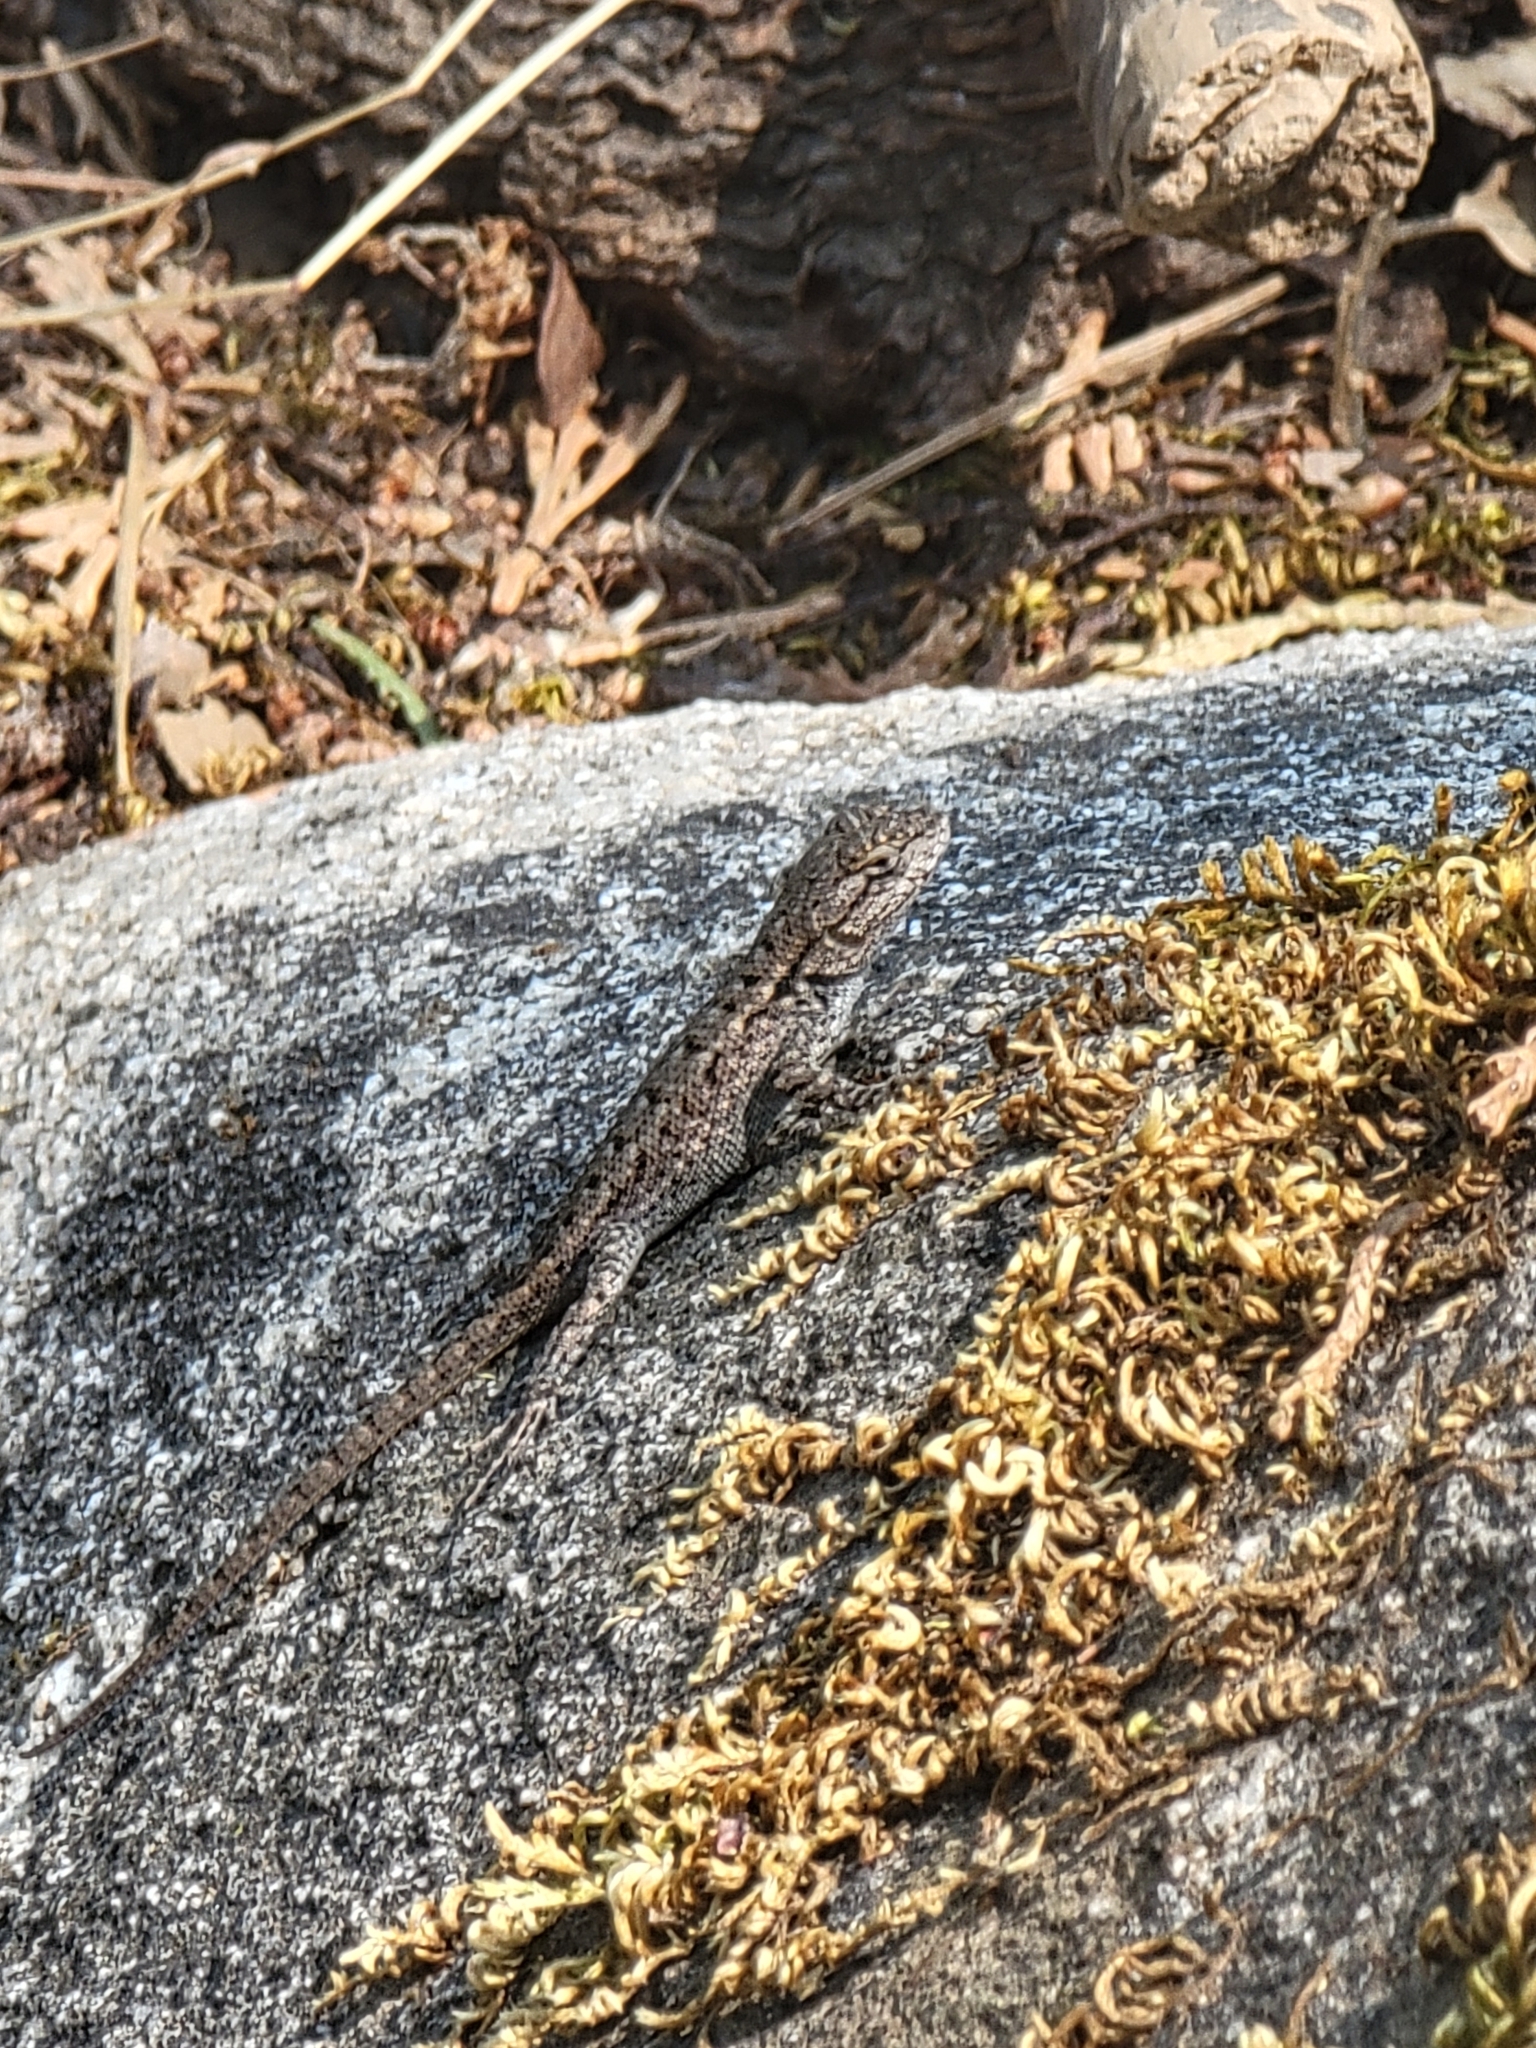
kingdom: Animalia
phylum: Chordata
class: Squamata
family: Phrynosomatidae
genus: Sceloporus
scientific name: Sceloporus occidentalis
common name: Western fence lizard
